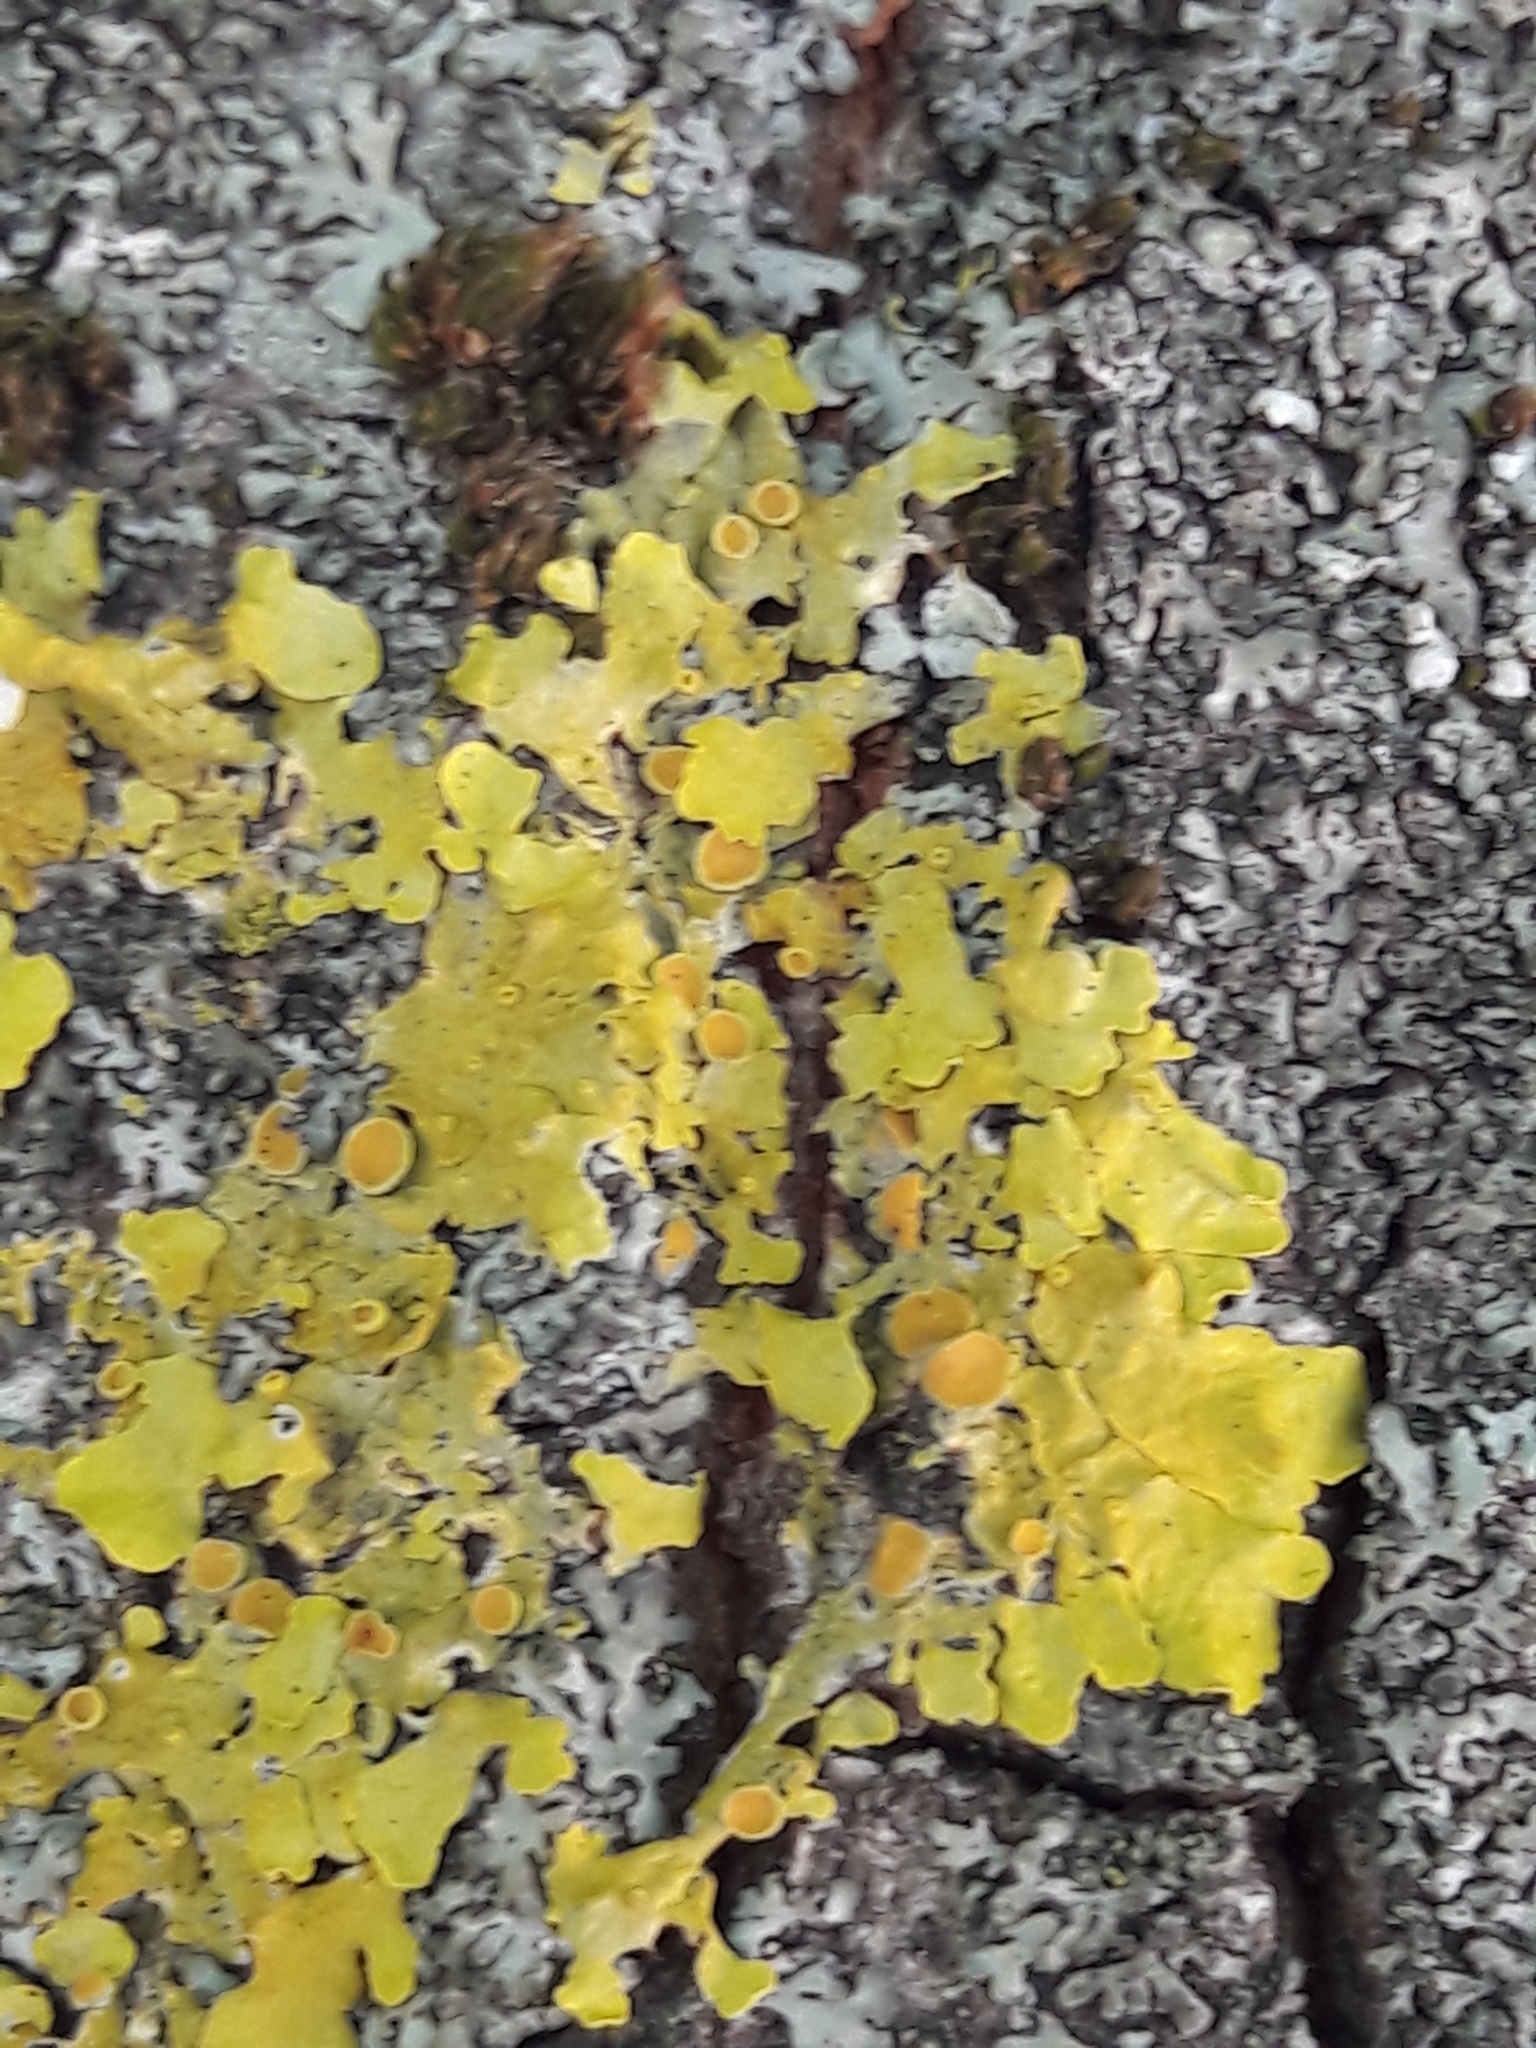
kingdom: Fungi
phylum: Ascomycota
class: Lecanoromycetes
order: Teloschistales
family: Teloschistaceae
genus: Xanthoria
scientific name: Xanthoria parietina
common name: Common orange lichen
